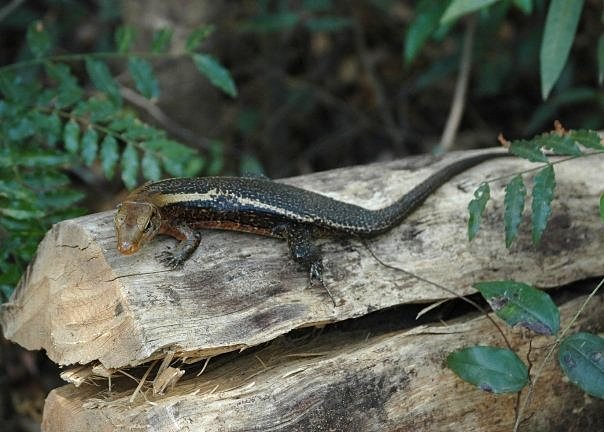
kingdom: Animalia
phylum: Chordata
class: Squamata
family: Gerrhosauridae
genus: Zonosaurus
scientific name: Zonosaurus laticaudatus
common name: Western girdled lizard
